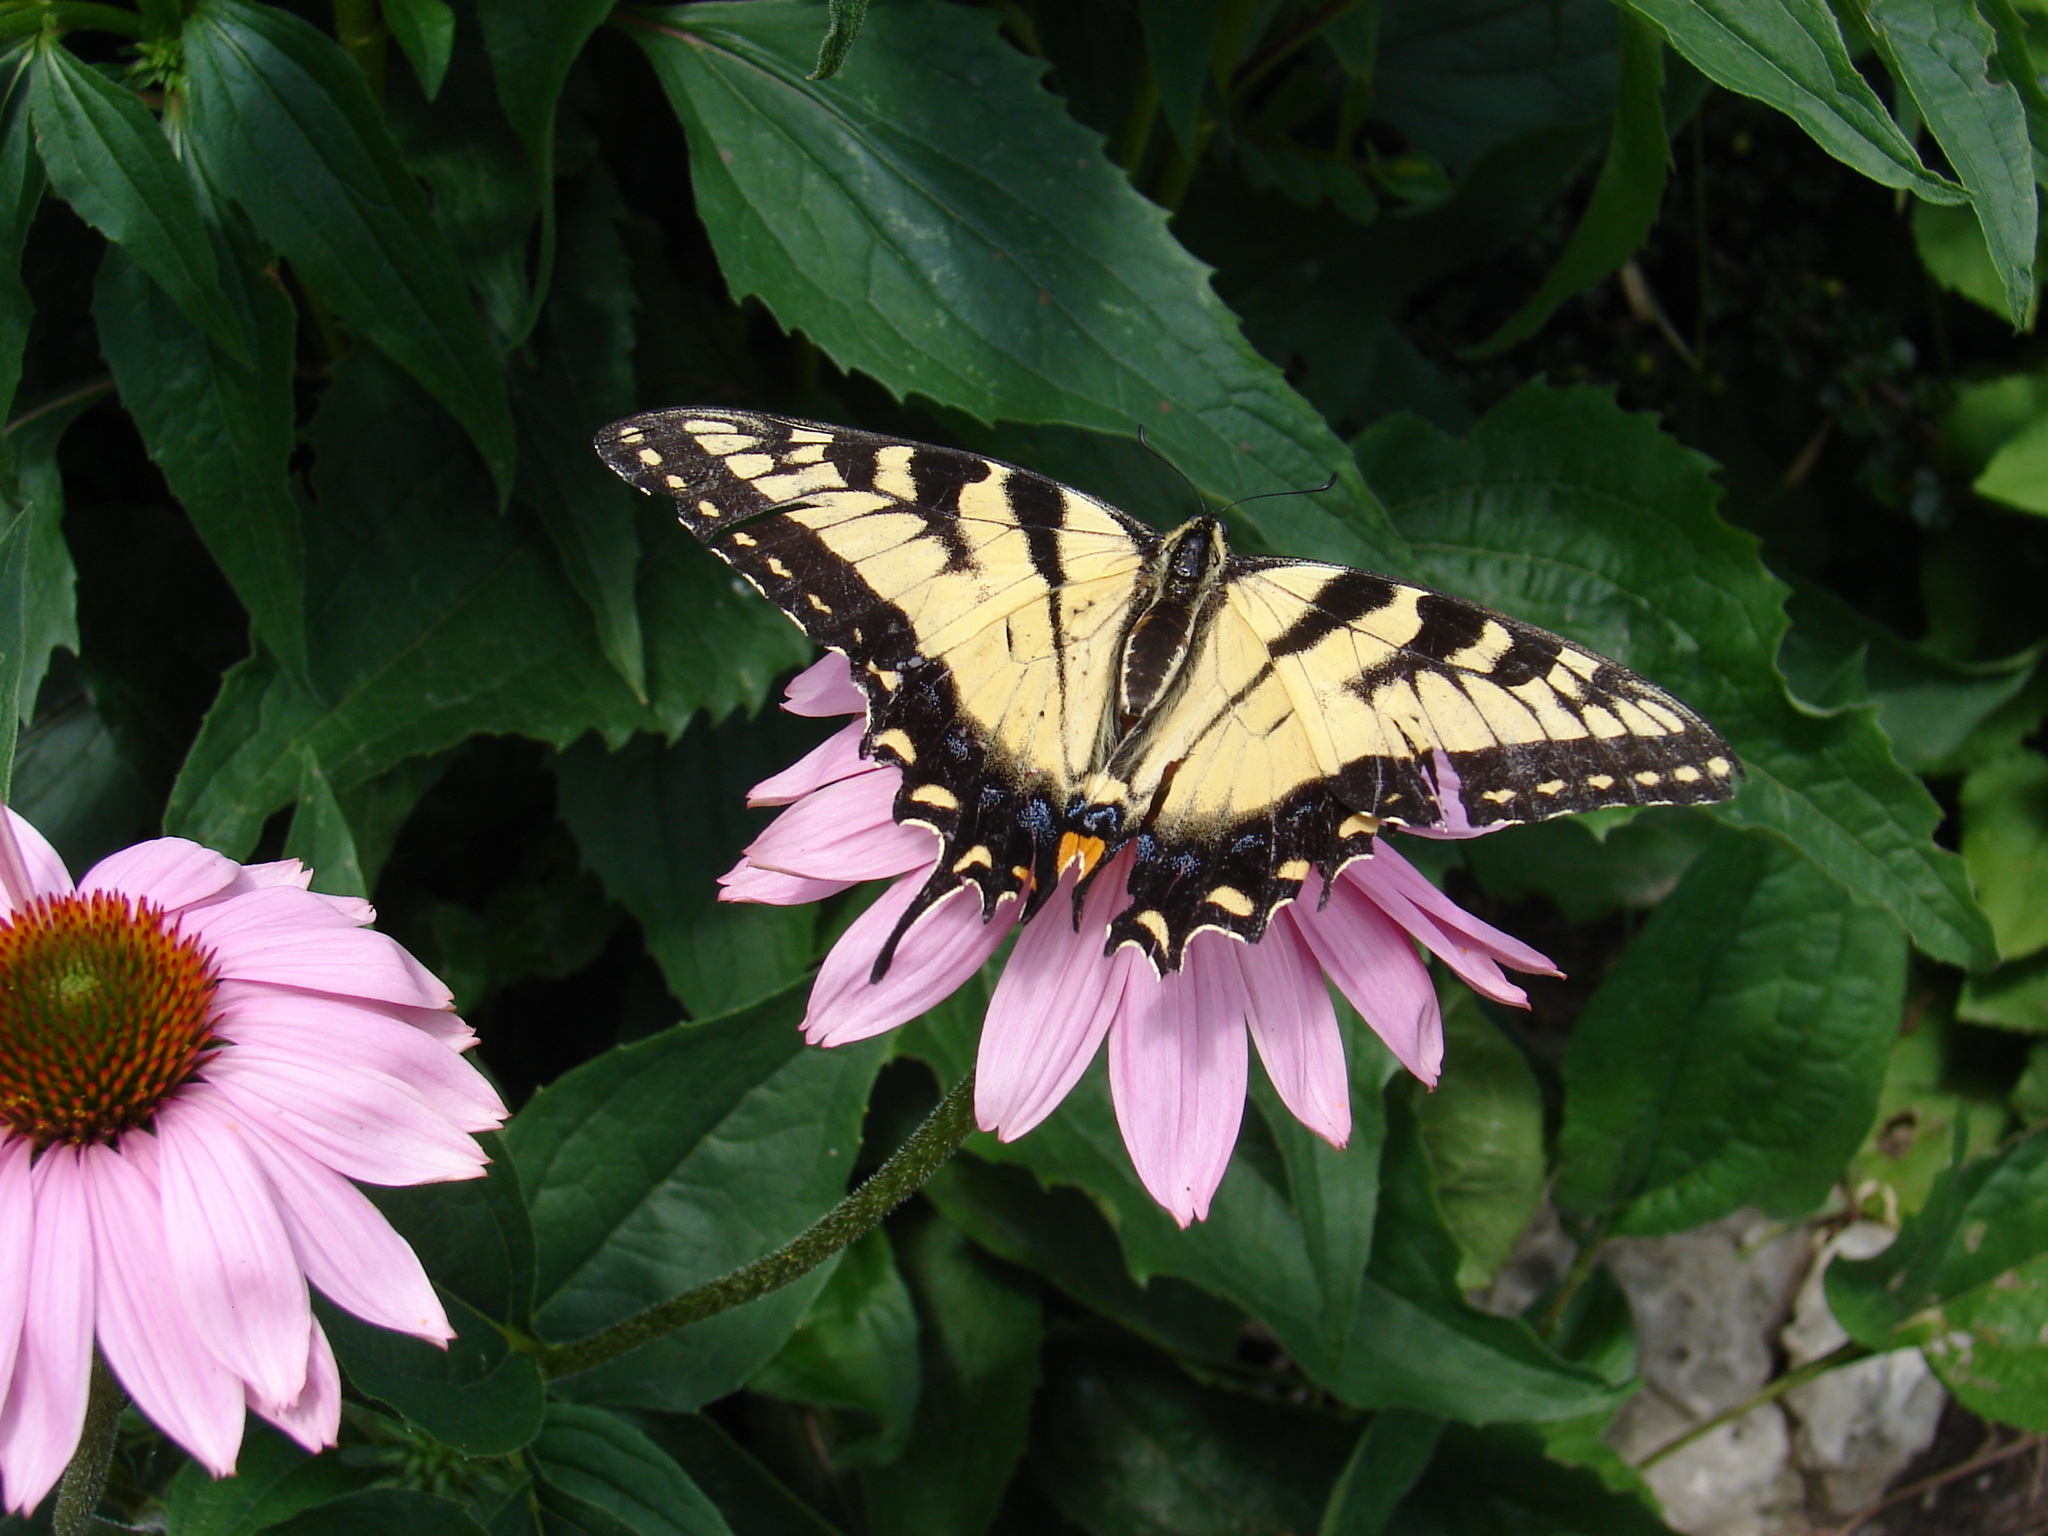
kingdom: Animalia
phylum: Arthropoda
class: Insecta
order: Lepidoptera
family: Papilionidae
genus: Papilio
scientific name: Papilio glaucus
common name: Tiger swallowtail
